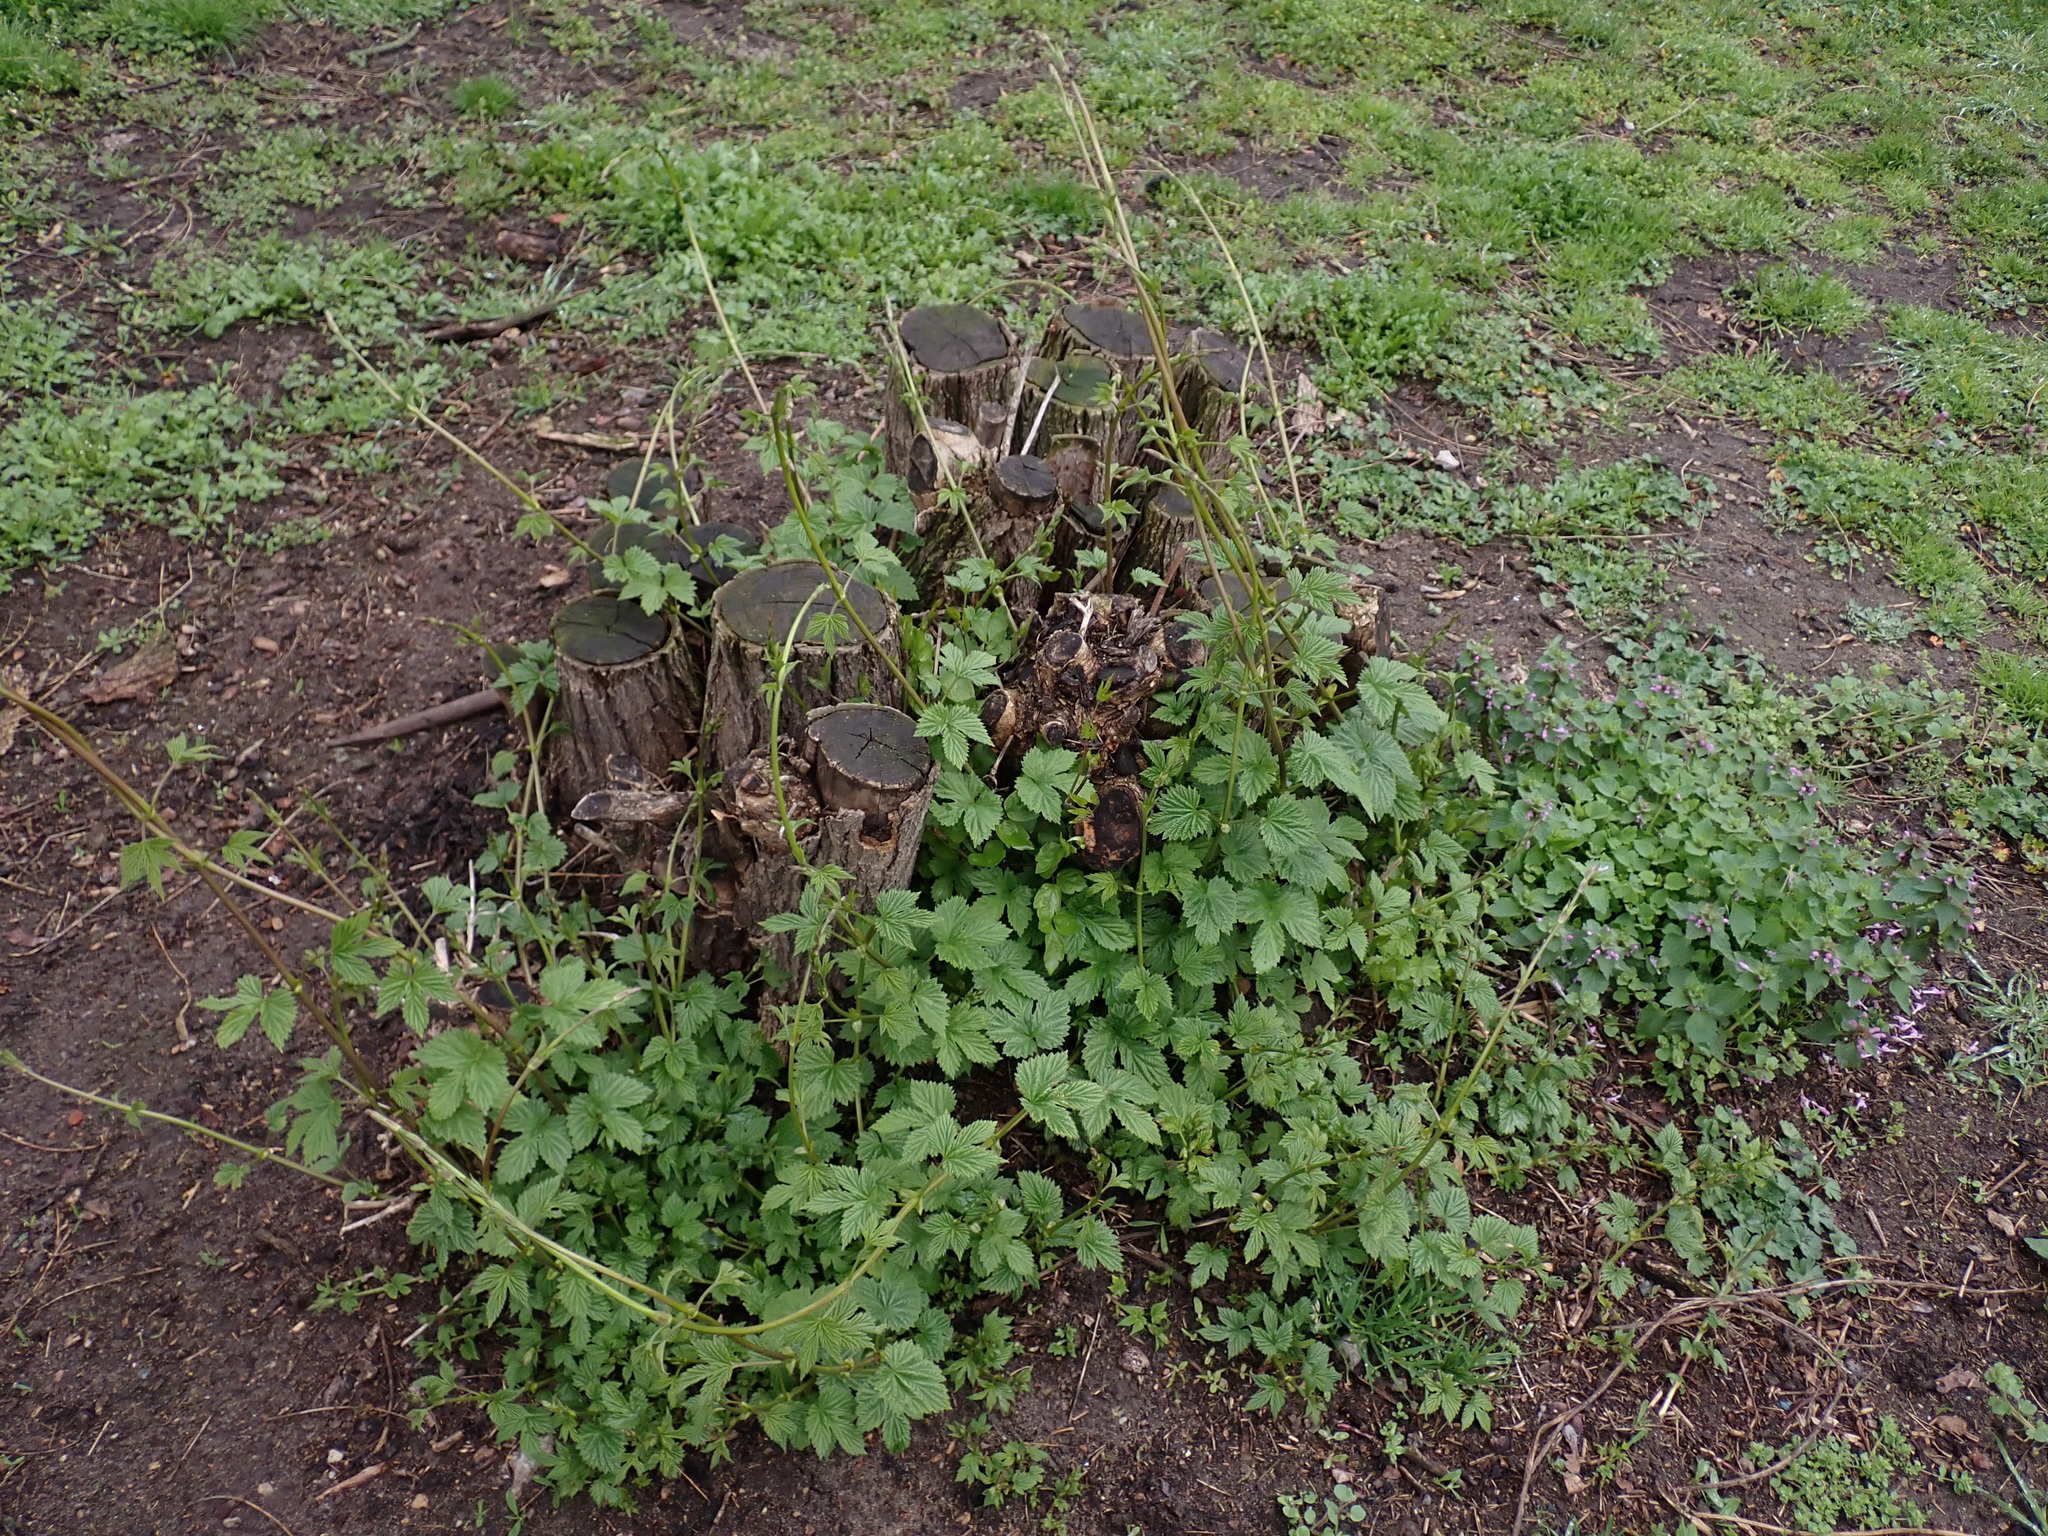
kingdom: Plantae
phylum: Tracheophyta
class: Magnoliopsida
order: Rosales
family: Cannabaceae
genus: Humulus
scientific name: Humulus lupulus
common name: Hop
